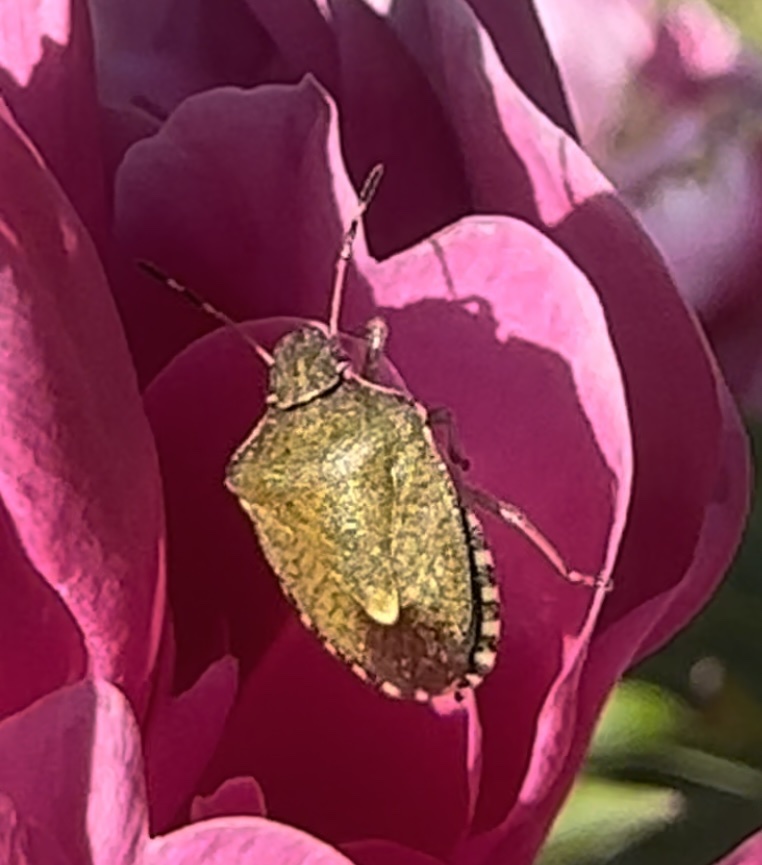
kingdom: Animalia
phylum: Arthropoda
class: Insecta
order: Hemiptera
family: Pentatomidae
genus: Holcostethus
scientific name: Holcostethus strictus
